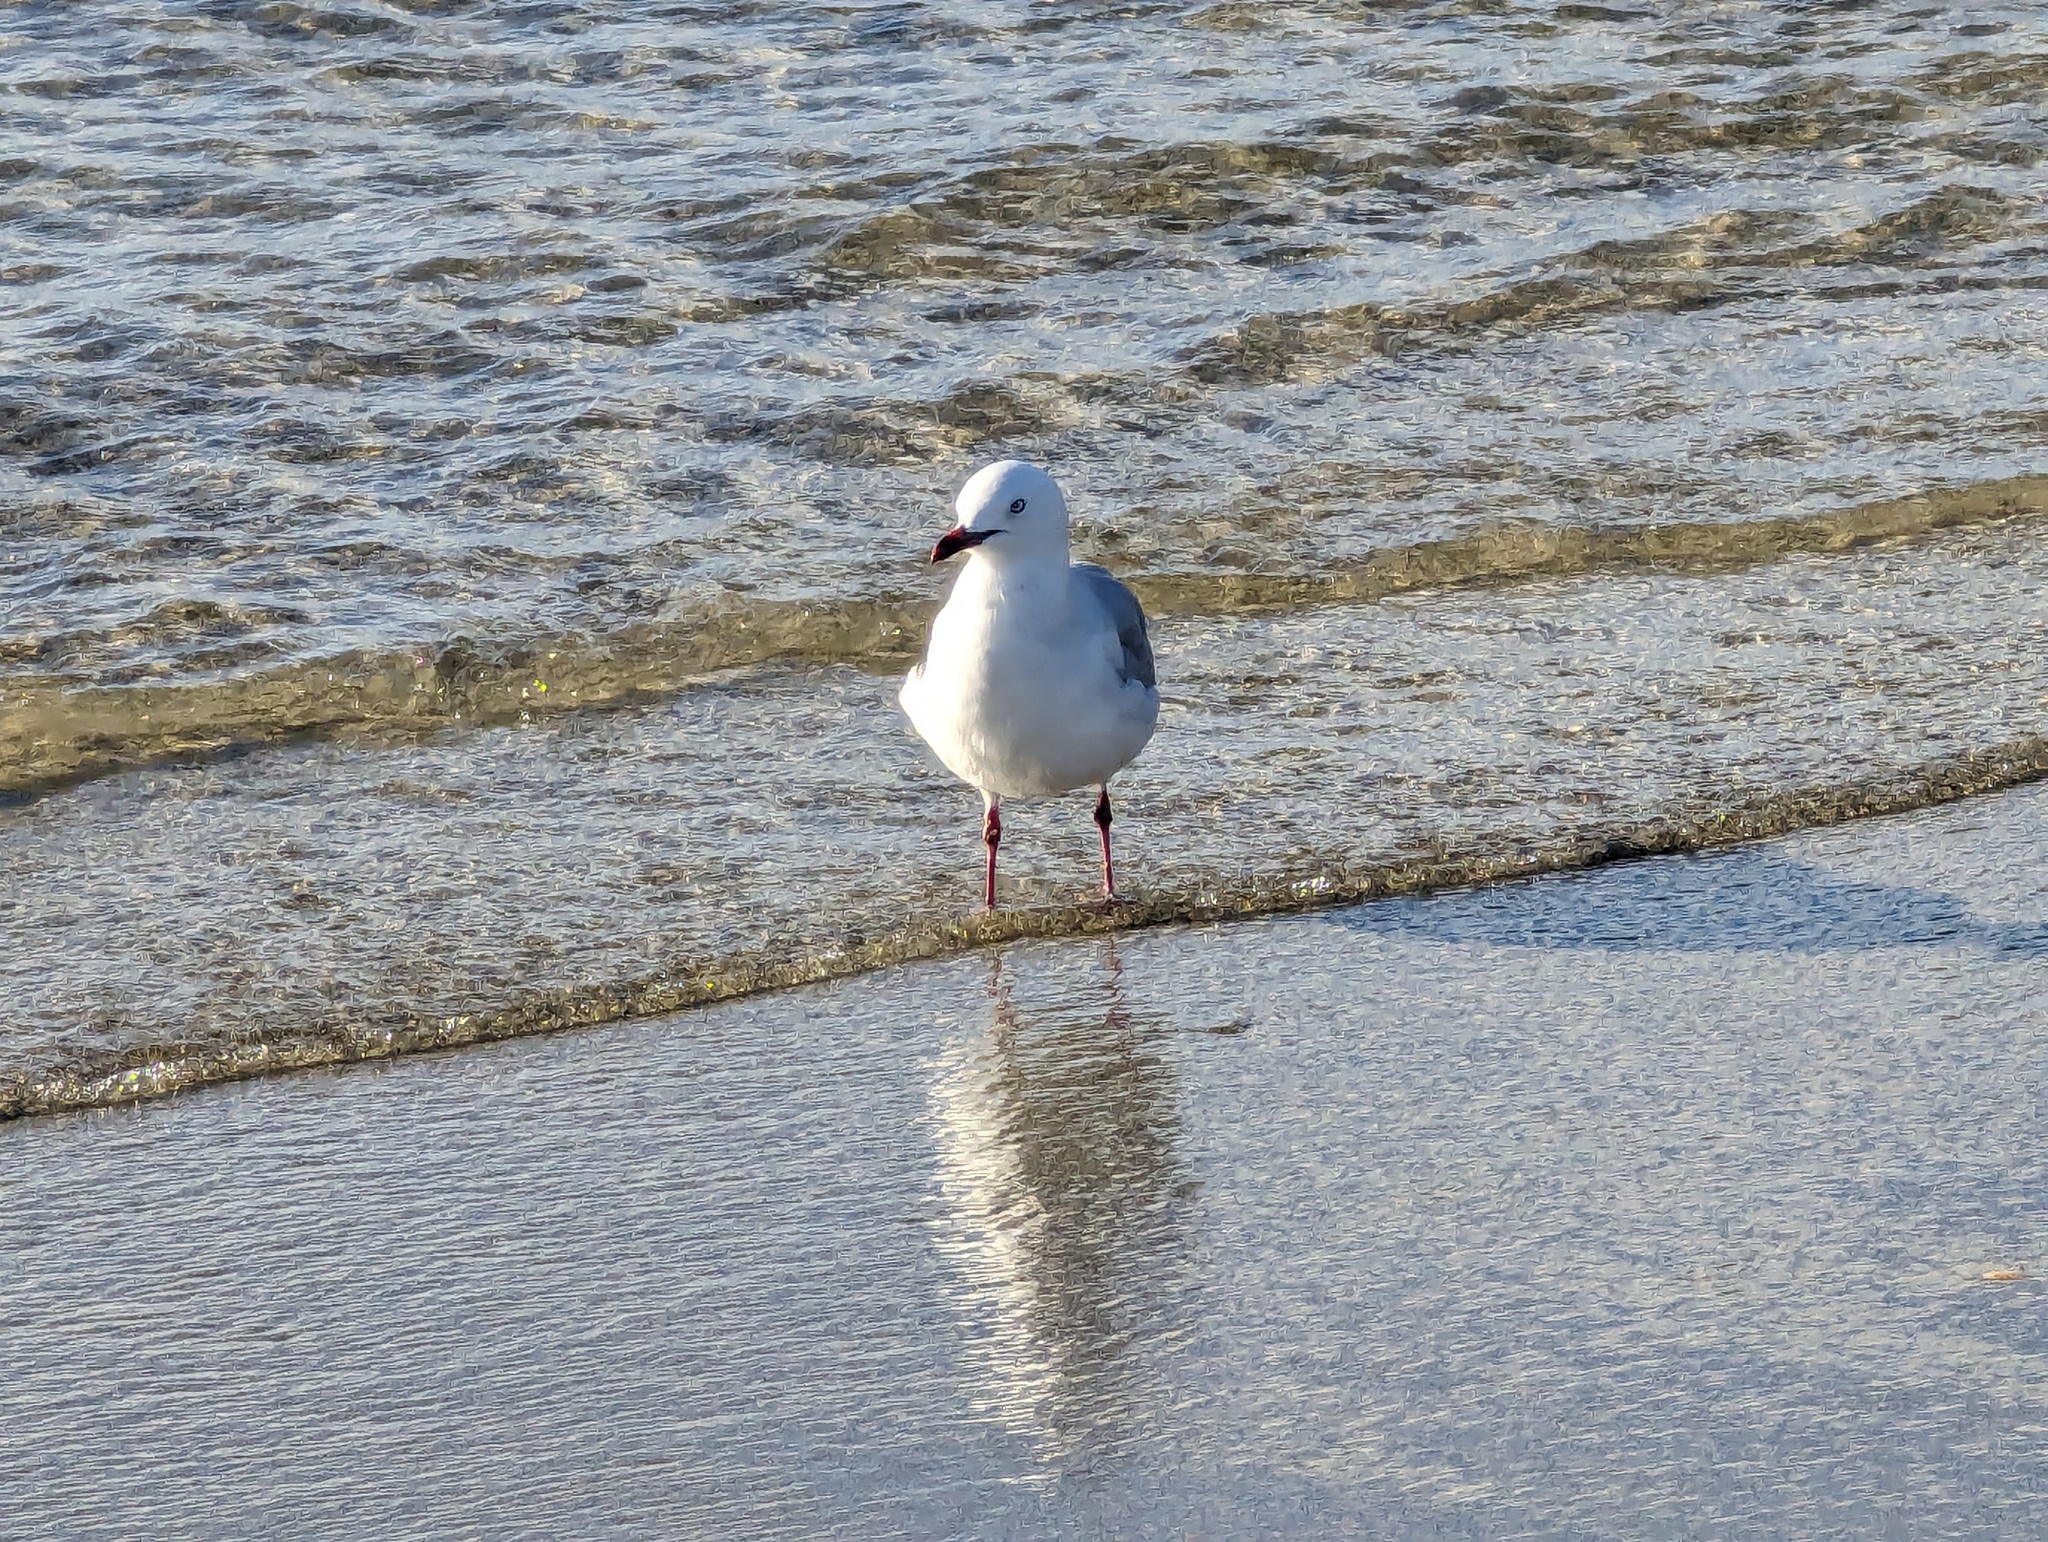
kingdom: Animalia
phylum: Chordata
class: Aves
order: Charadriiformes
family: Laridae
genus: Chroicocephalus
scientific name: Chroicocephalus novaehollandiae
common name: Silver gull
